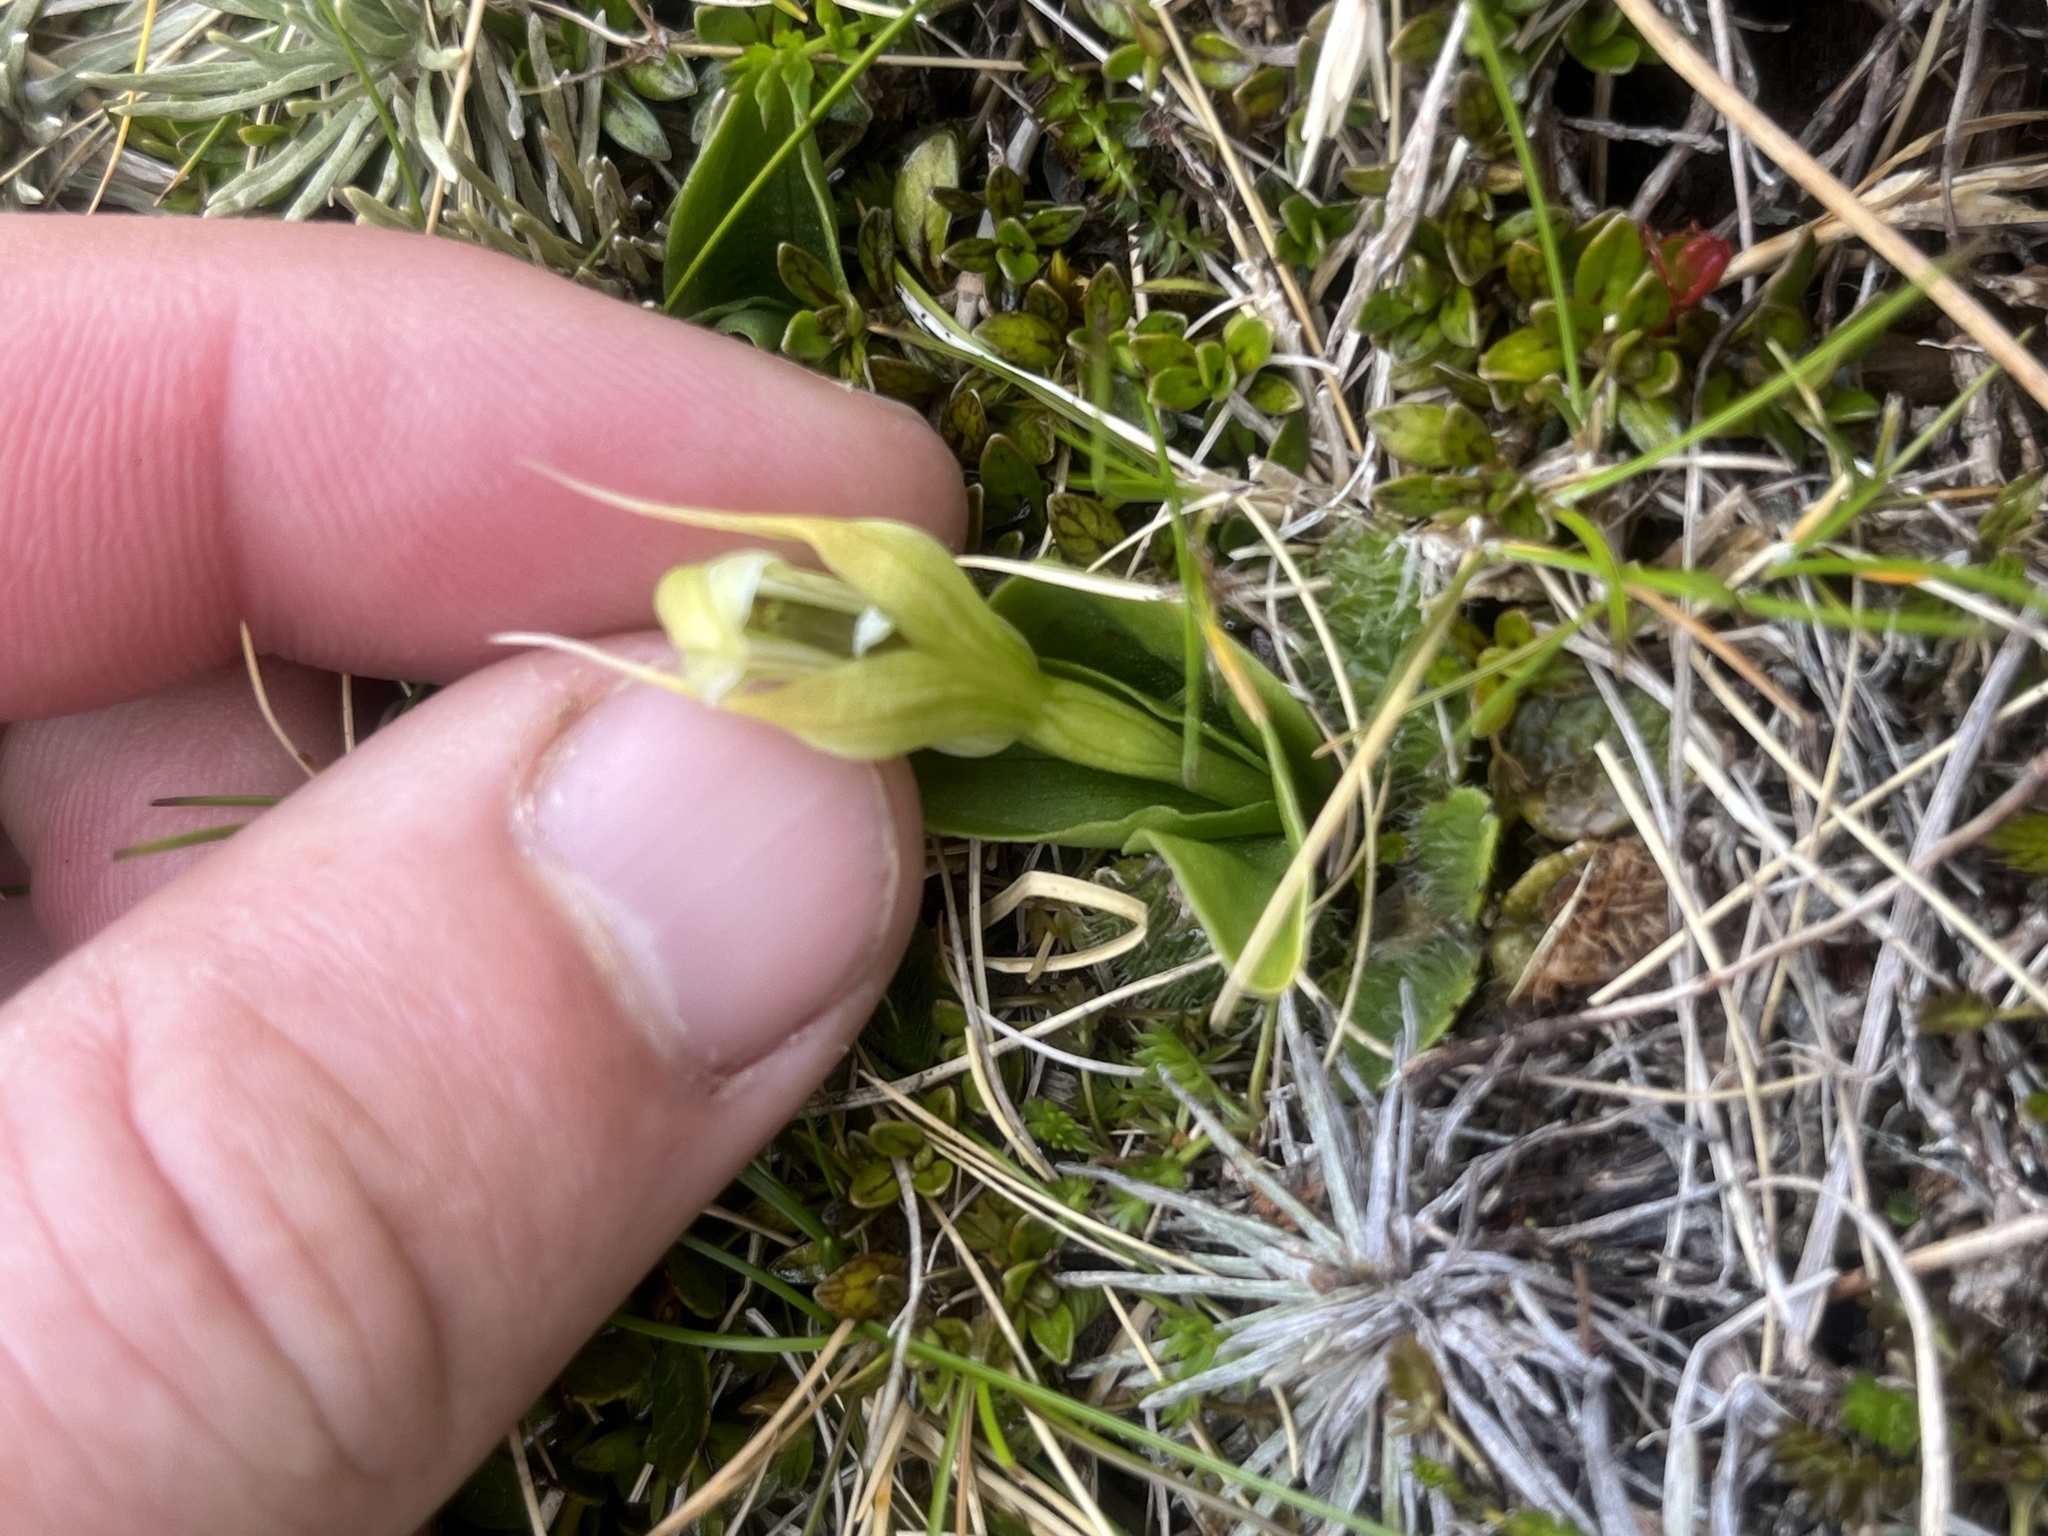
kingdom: Plantae
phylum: Tracheophyta
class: Liliopsida
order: Asparagales
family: Orchidaceae
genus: Pterostylis
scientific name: Pterostylis venosa
